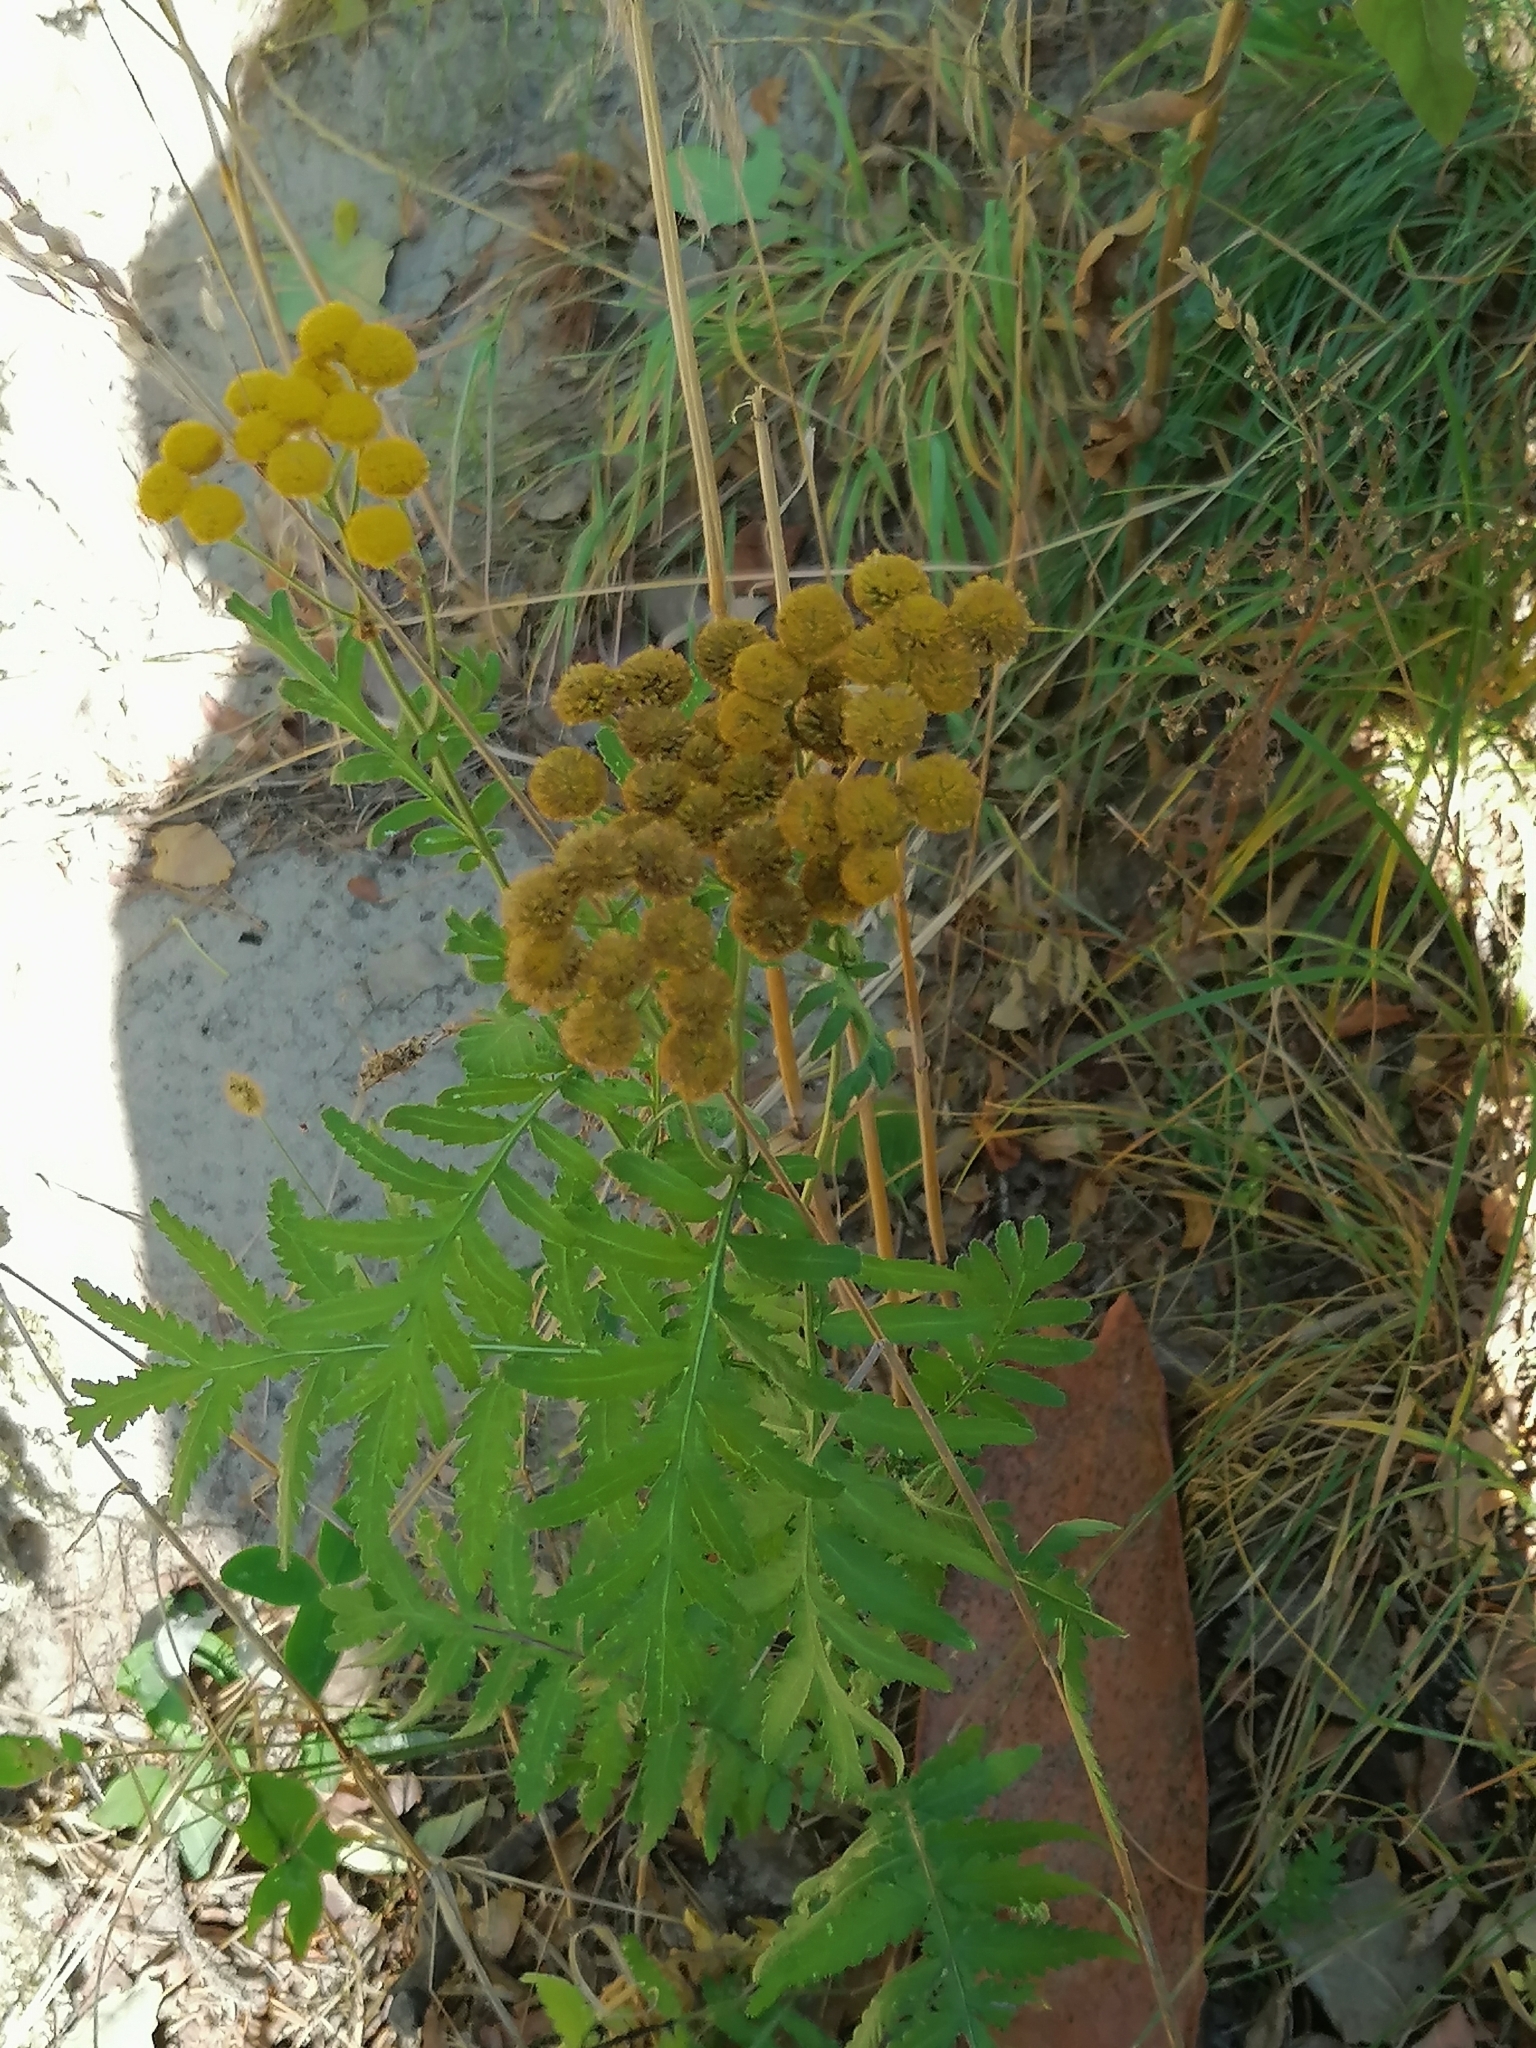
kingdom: Plantae
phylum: Tracheophyta
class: Magnoliopsida
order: Asterales
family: Asteraceae
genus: Tanacetum
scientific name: Tanacetum vulgare
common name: Common tansy
